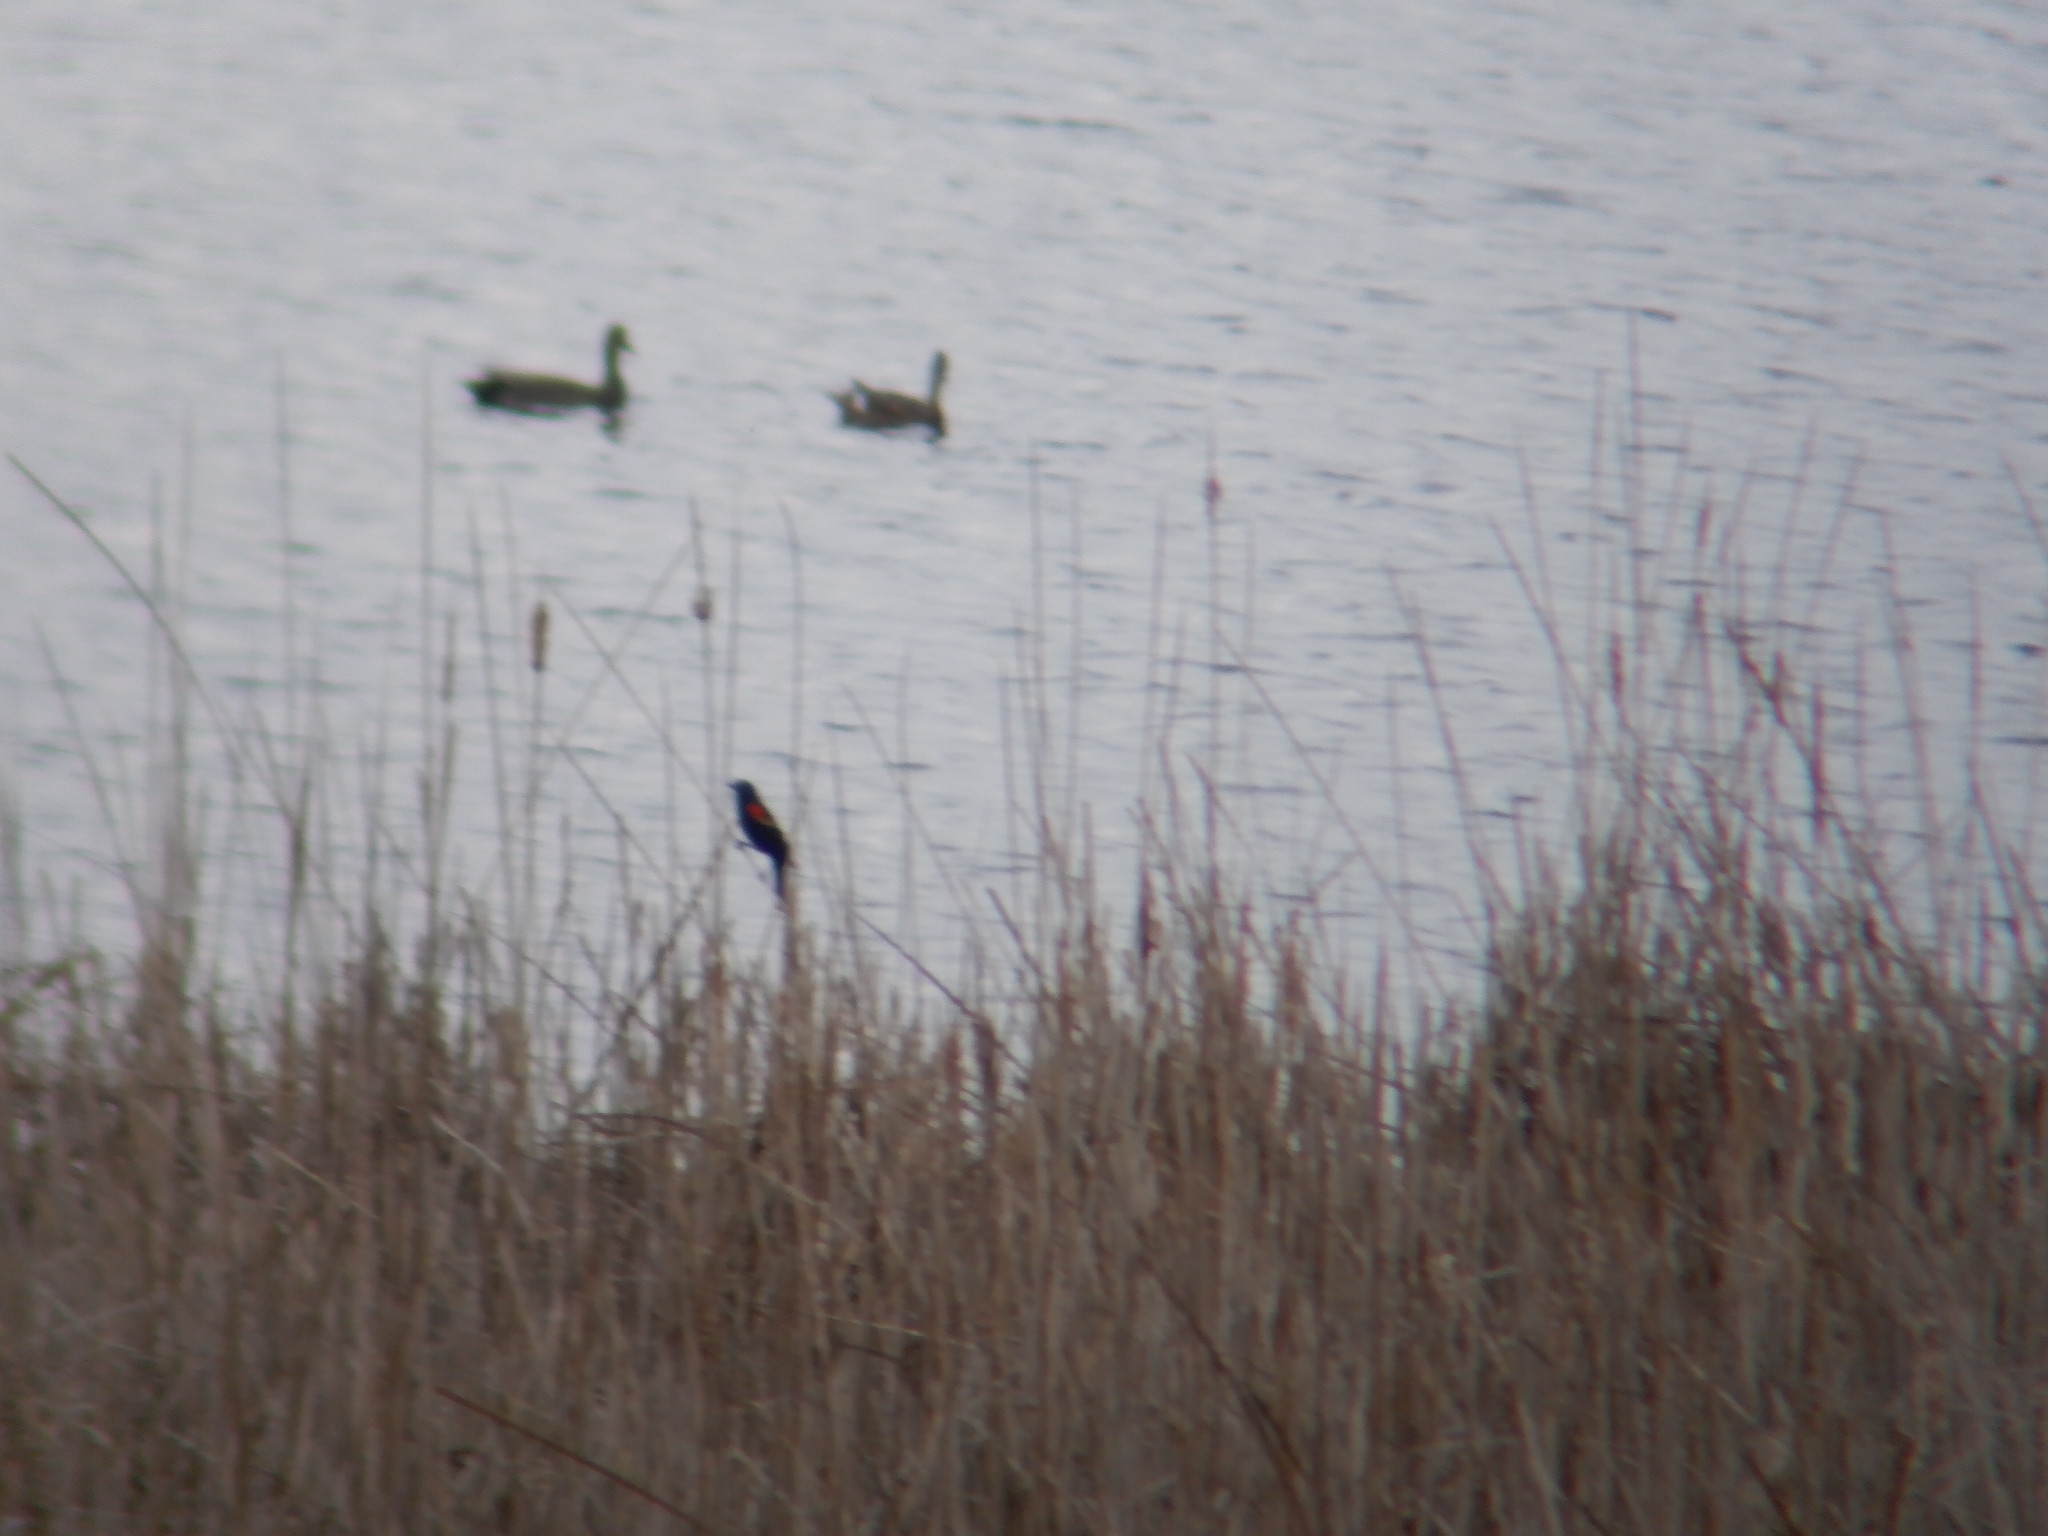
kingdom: Animalia
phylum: Chordata
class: Aves
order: Passeriformes
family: Icteridae
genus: Agelaius
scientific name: Agelaius phoeniceus
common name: Red-winged blackbird
